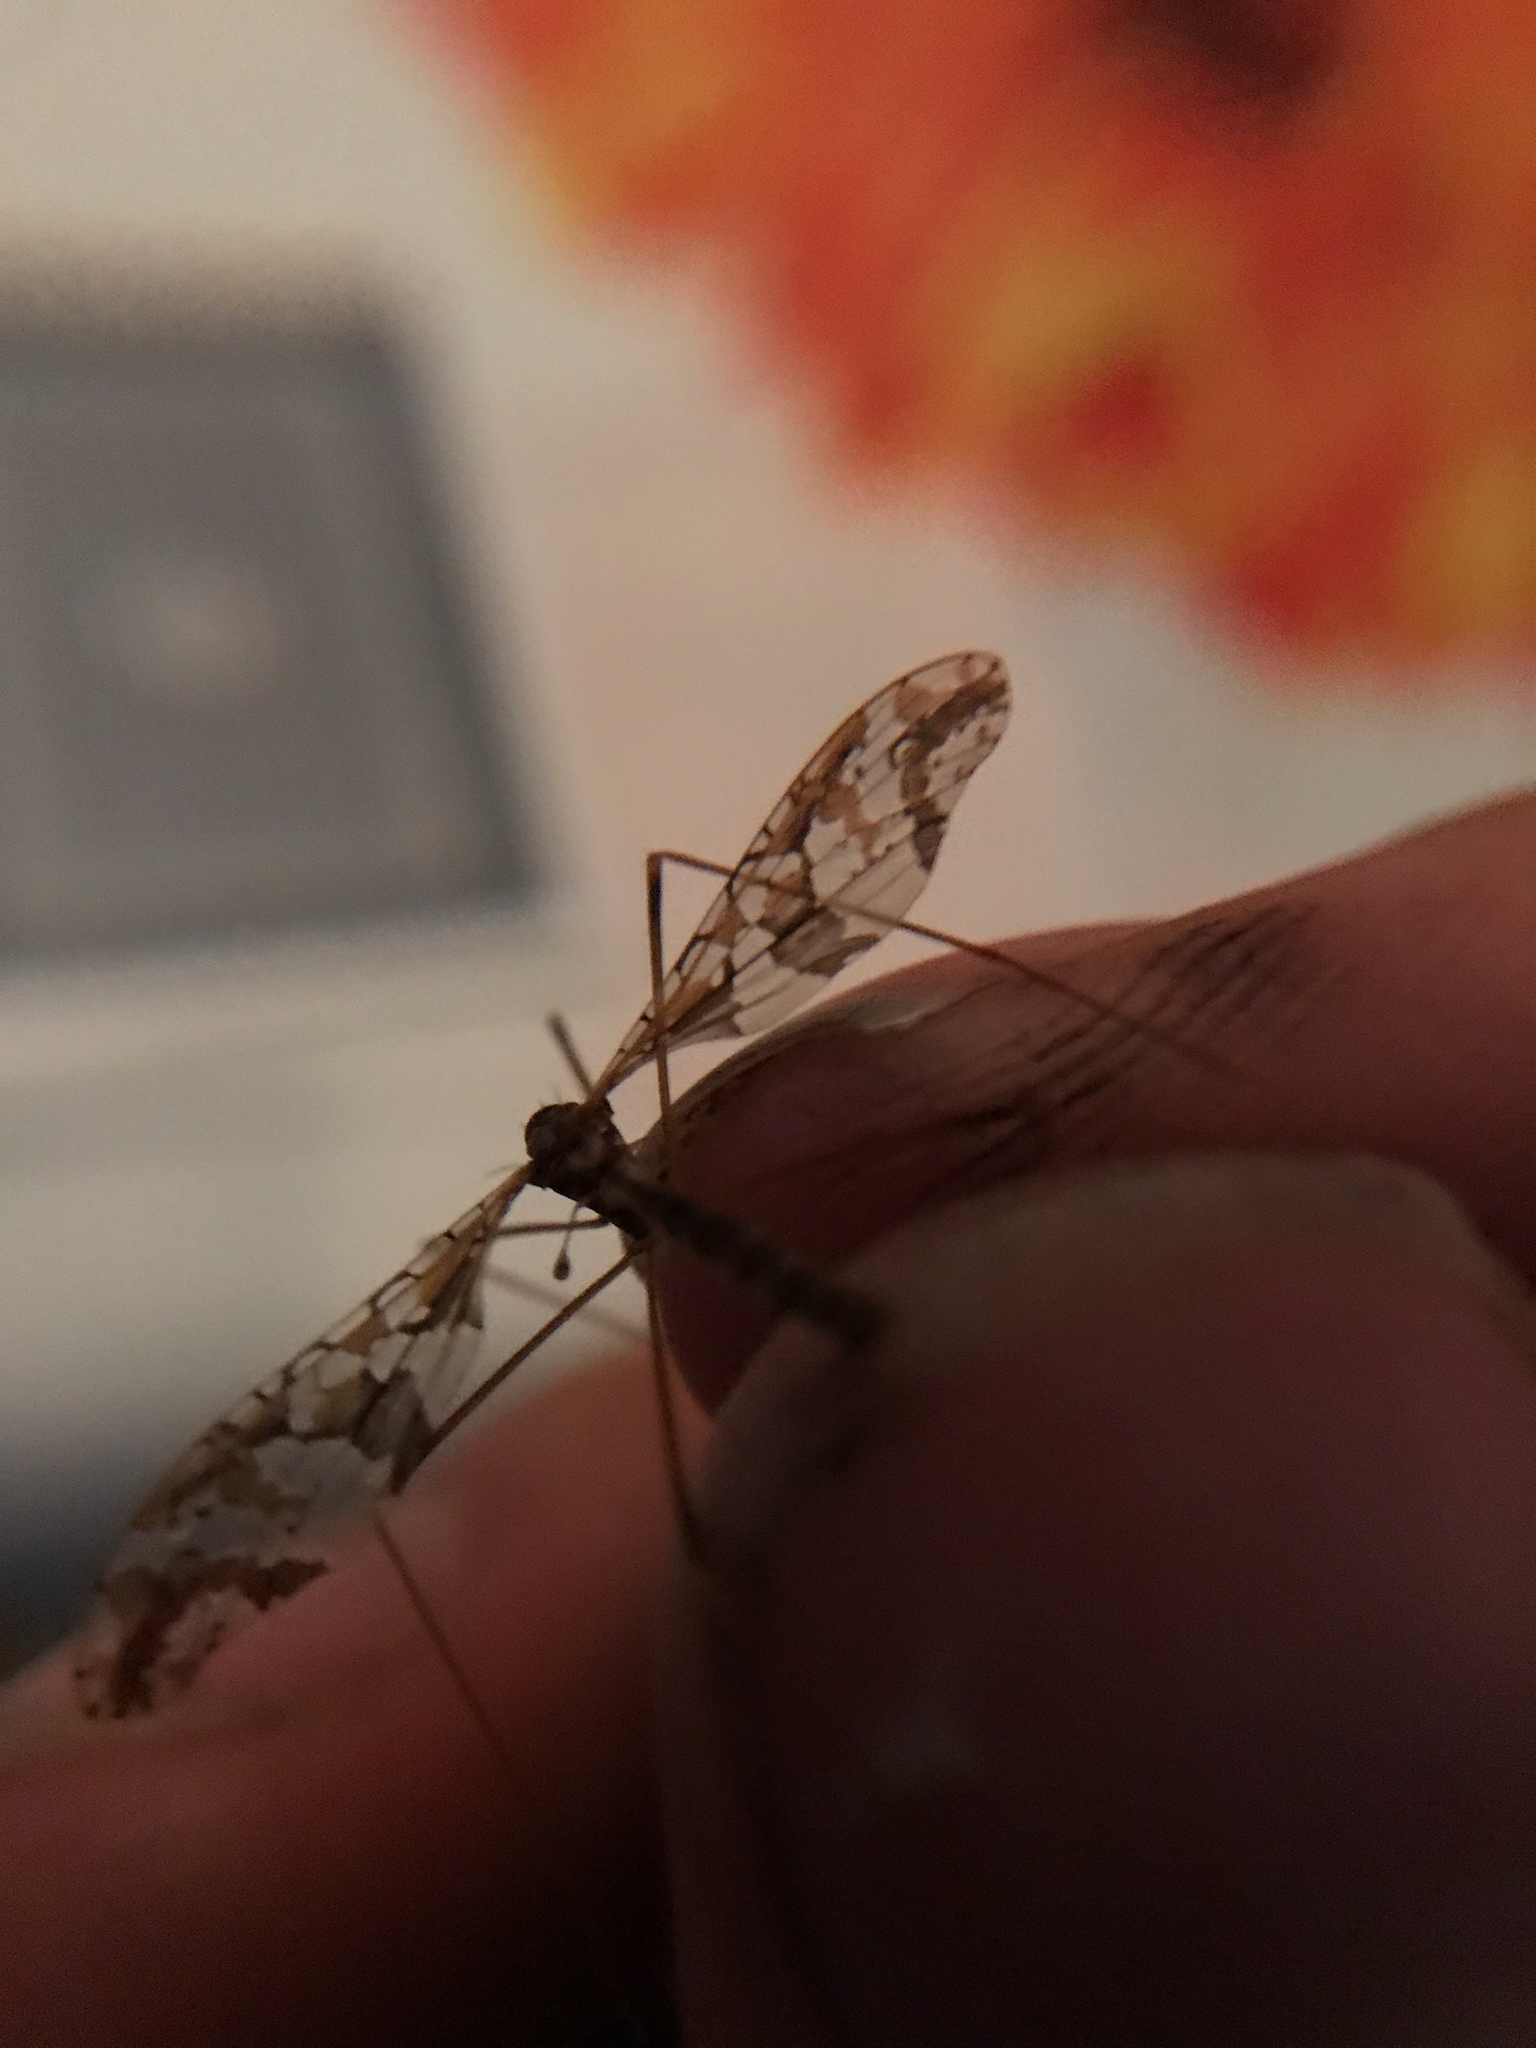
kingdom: Animalia
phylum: Arthropoda
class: Insecta
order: Diptera
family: Limoniidae
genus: Epiphragma
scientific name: Epiphragma solatrix
